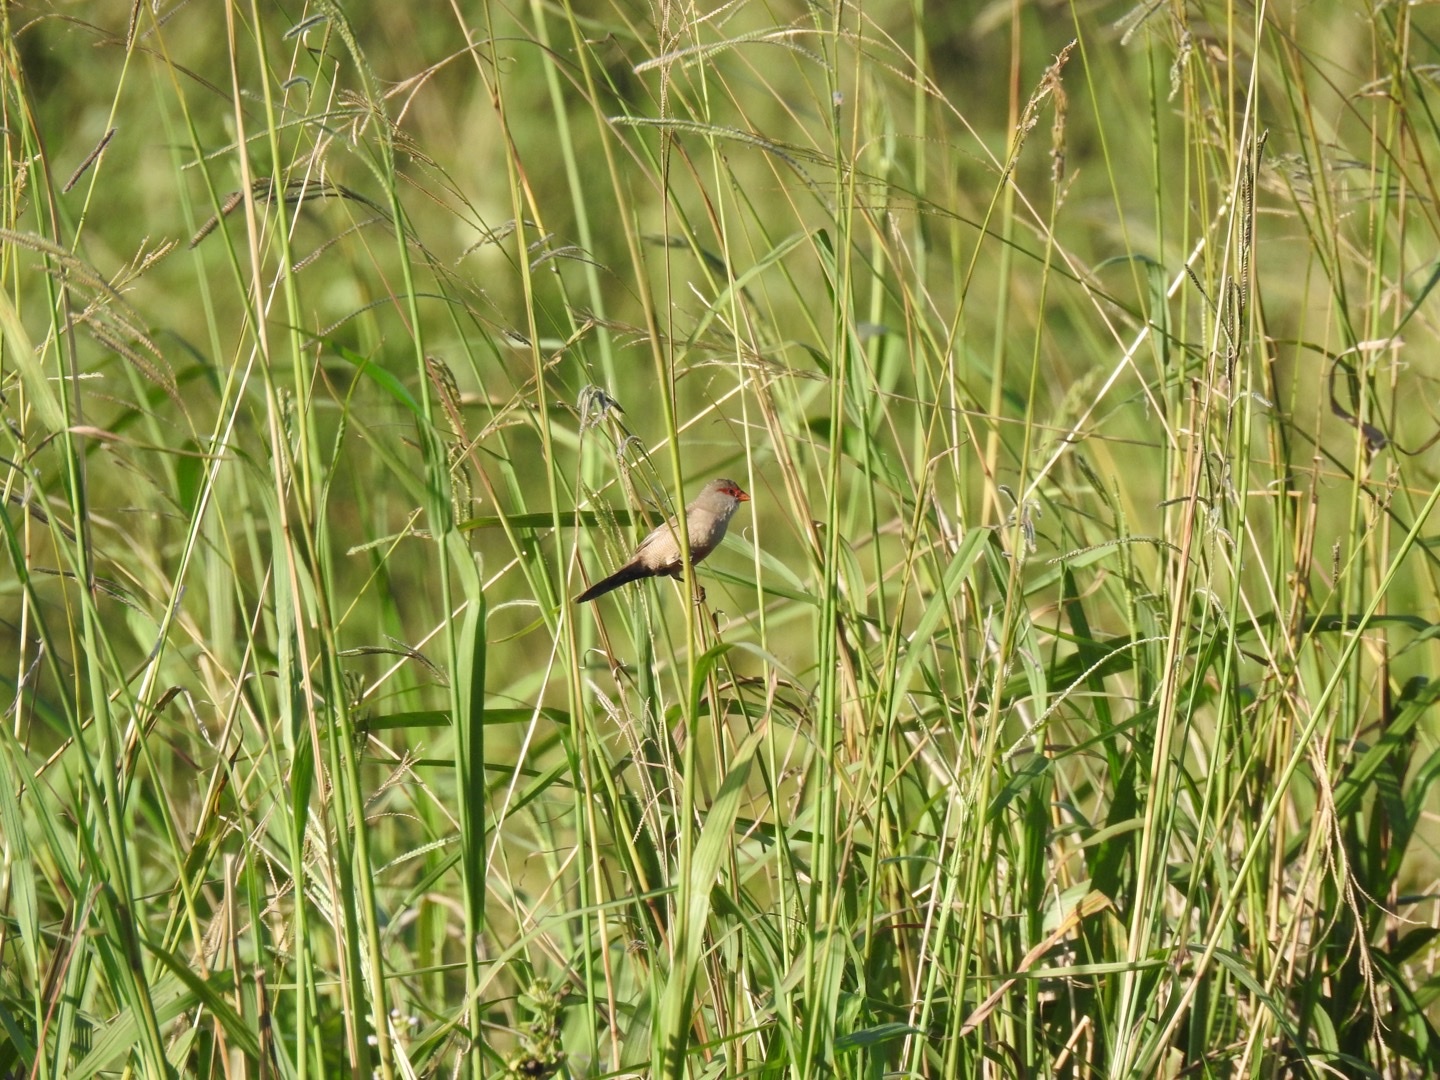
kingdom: Animalia
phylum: Chordata
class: Aves
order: Passeriformes
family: Estrildidae
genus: Estrilda
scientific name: Estrilda astrild
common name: Common waxbill
